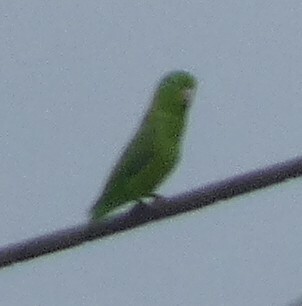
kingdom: Animalia
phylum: Chordata
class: Aves
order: Psittaciformes
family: Psittacidae
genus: Forpus
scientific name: Forpus xanthopterygius
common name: Blue-winged parrotlet
